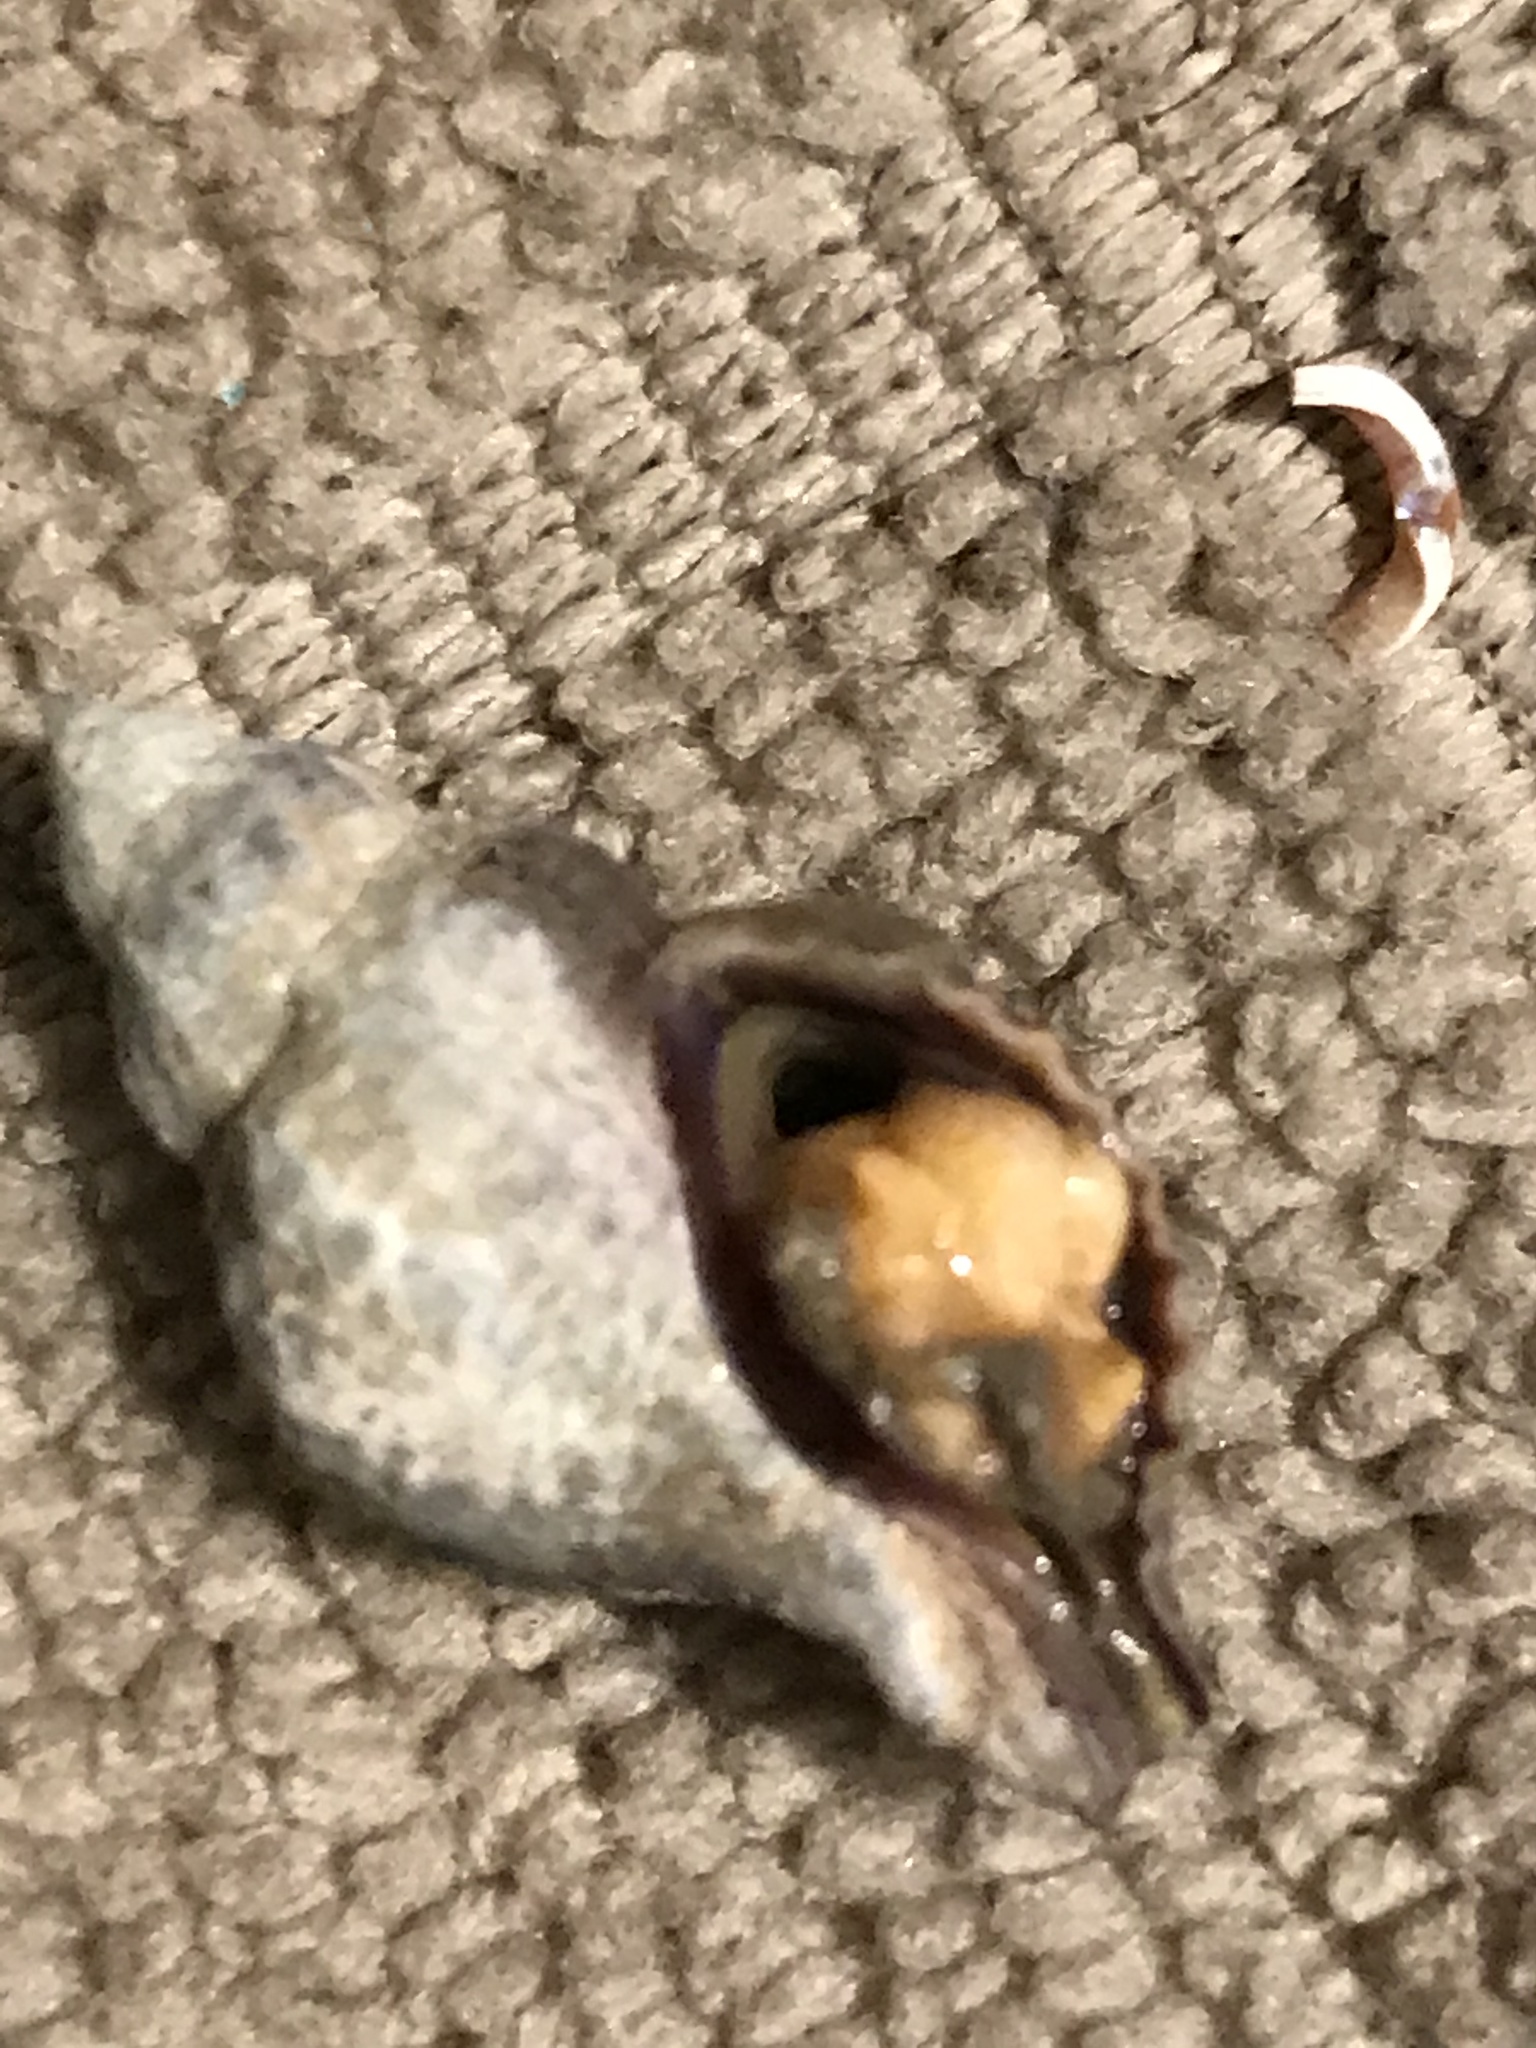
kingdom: Animalia
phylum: Mollusca
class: Gastropoda
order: Neogastropoda
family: Muricidae
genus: Urosalpinx
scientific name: Urosalpinx cinerea
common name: American sting winkle
